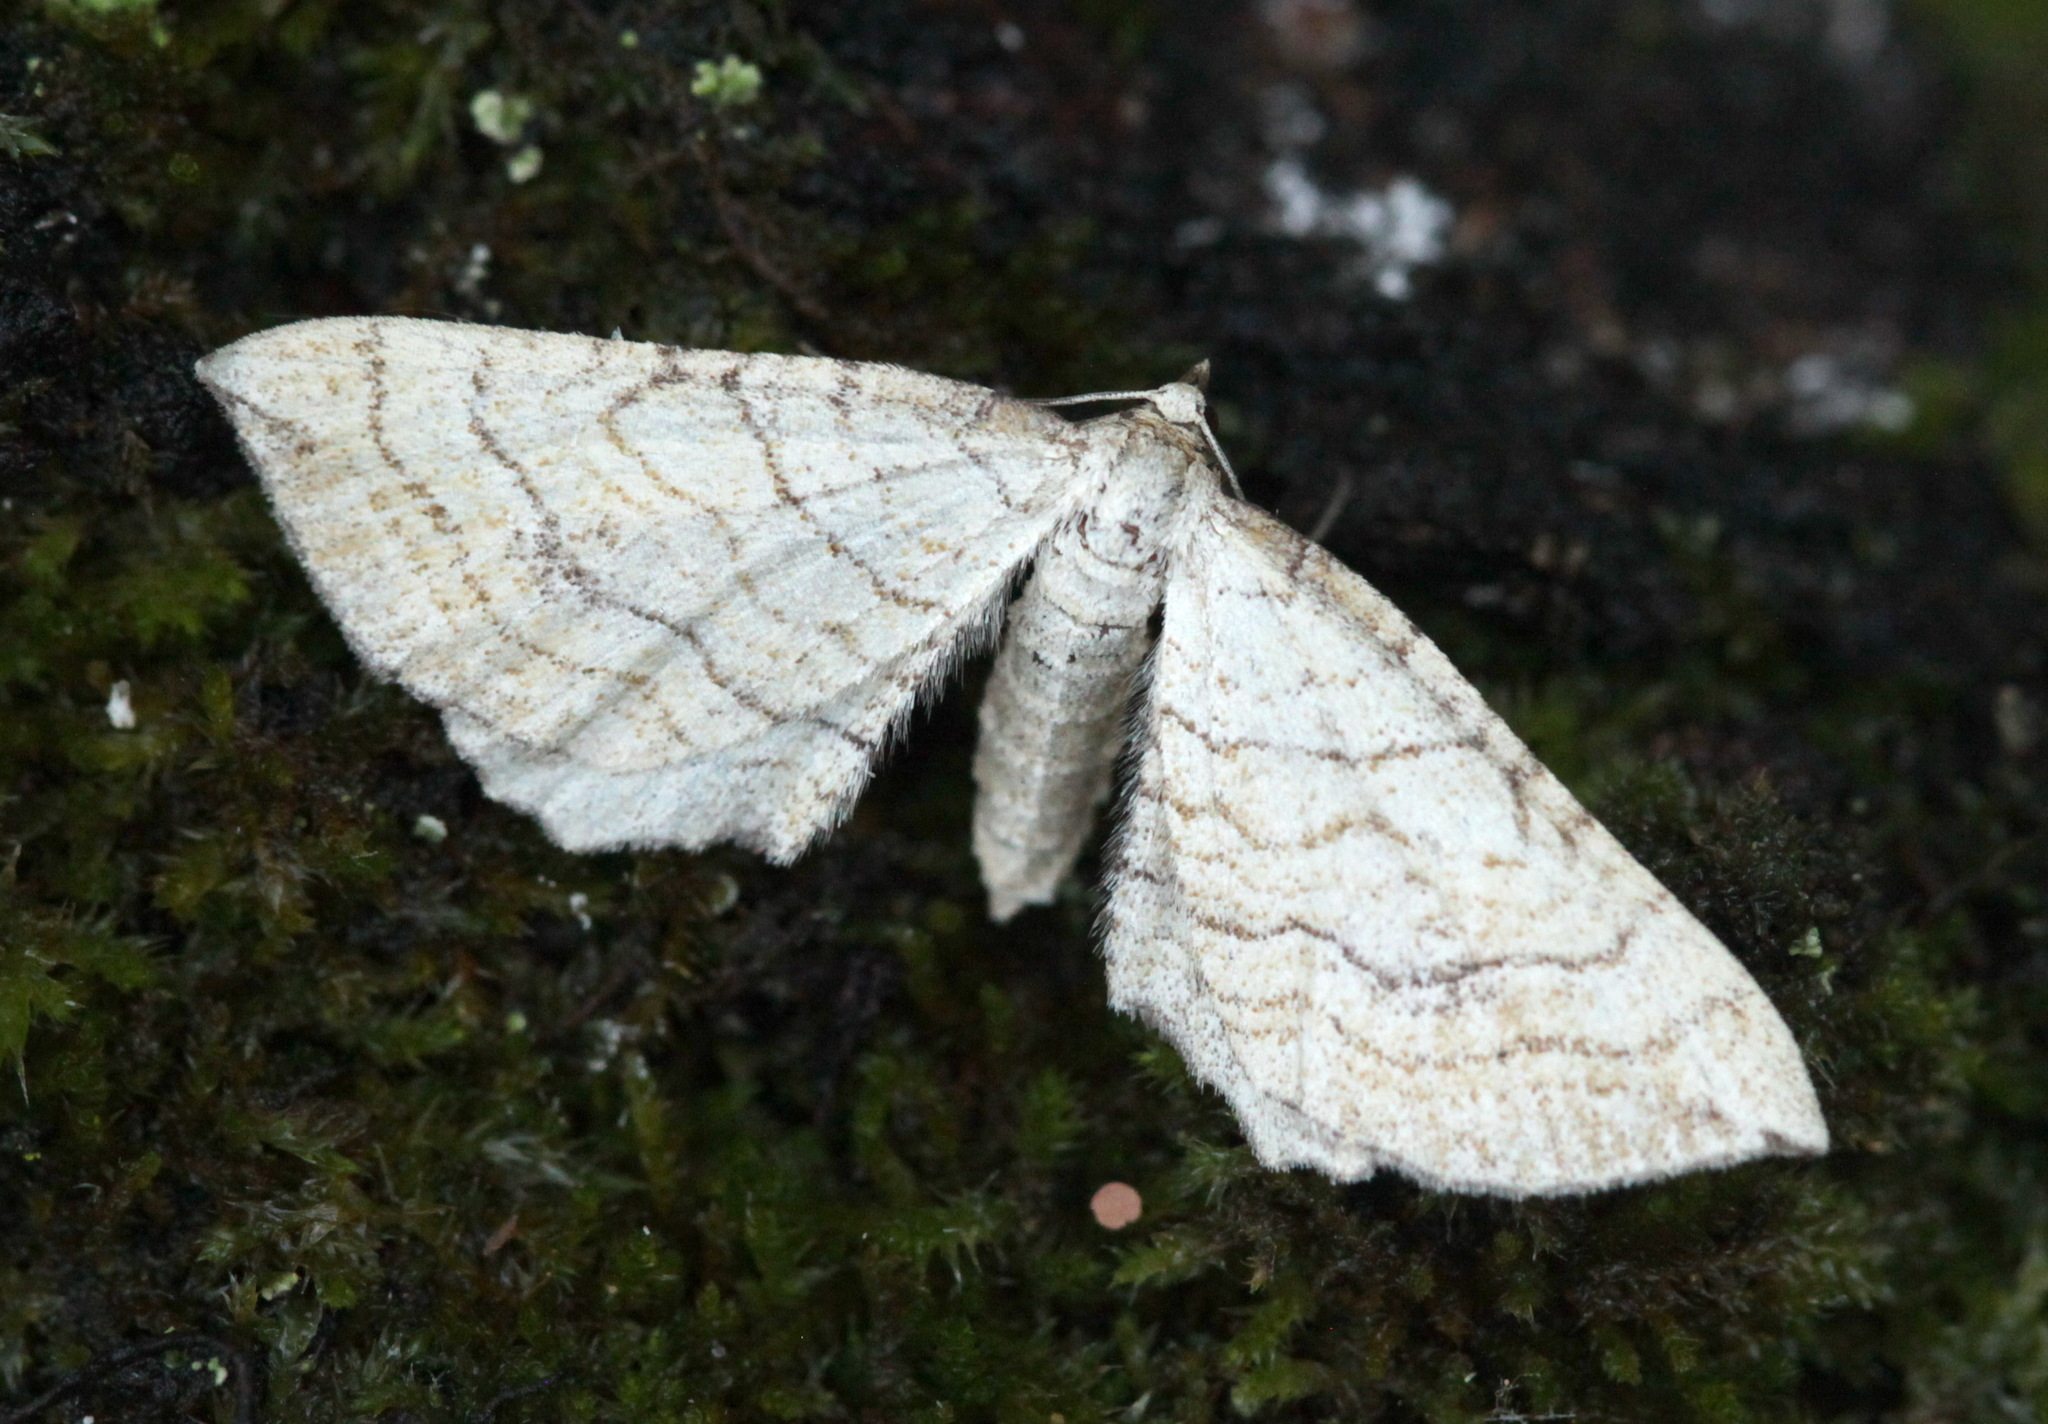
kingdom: Animalia
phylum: Arthropoda
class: Insecta
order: Lepidoptera
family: Geometridae
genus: Coenocalpe
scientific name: Coenocalpe lapidata
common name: Slender-striped rufous
